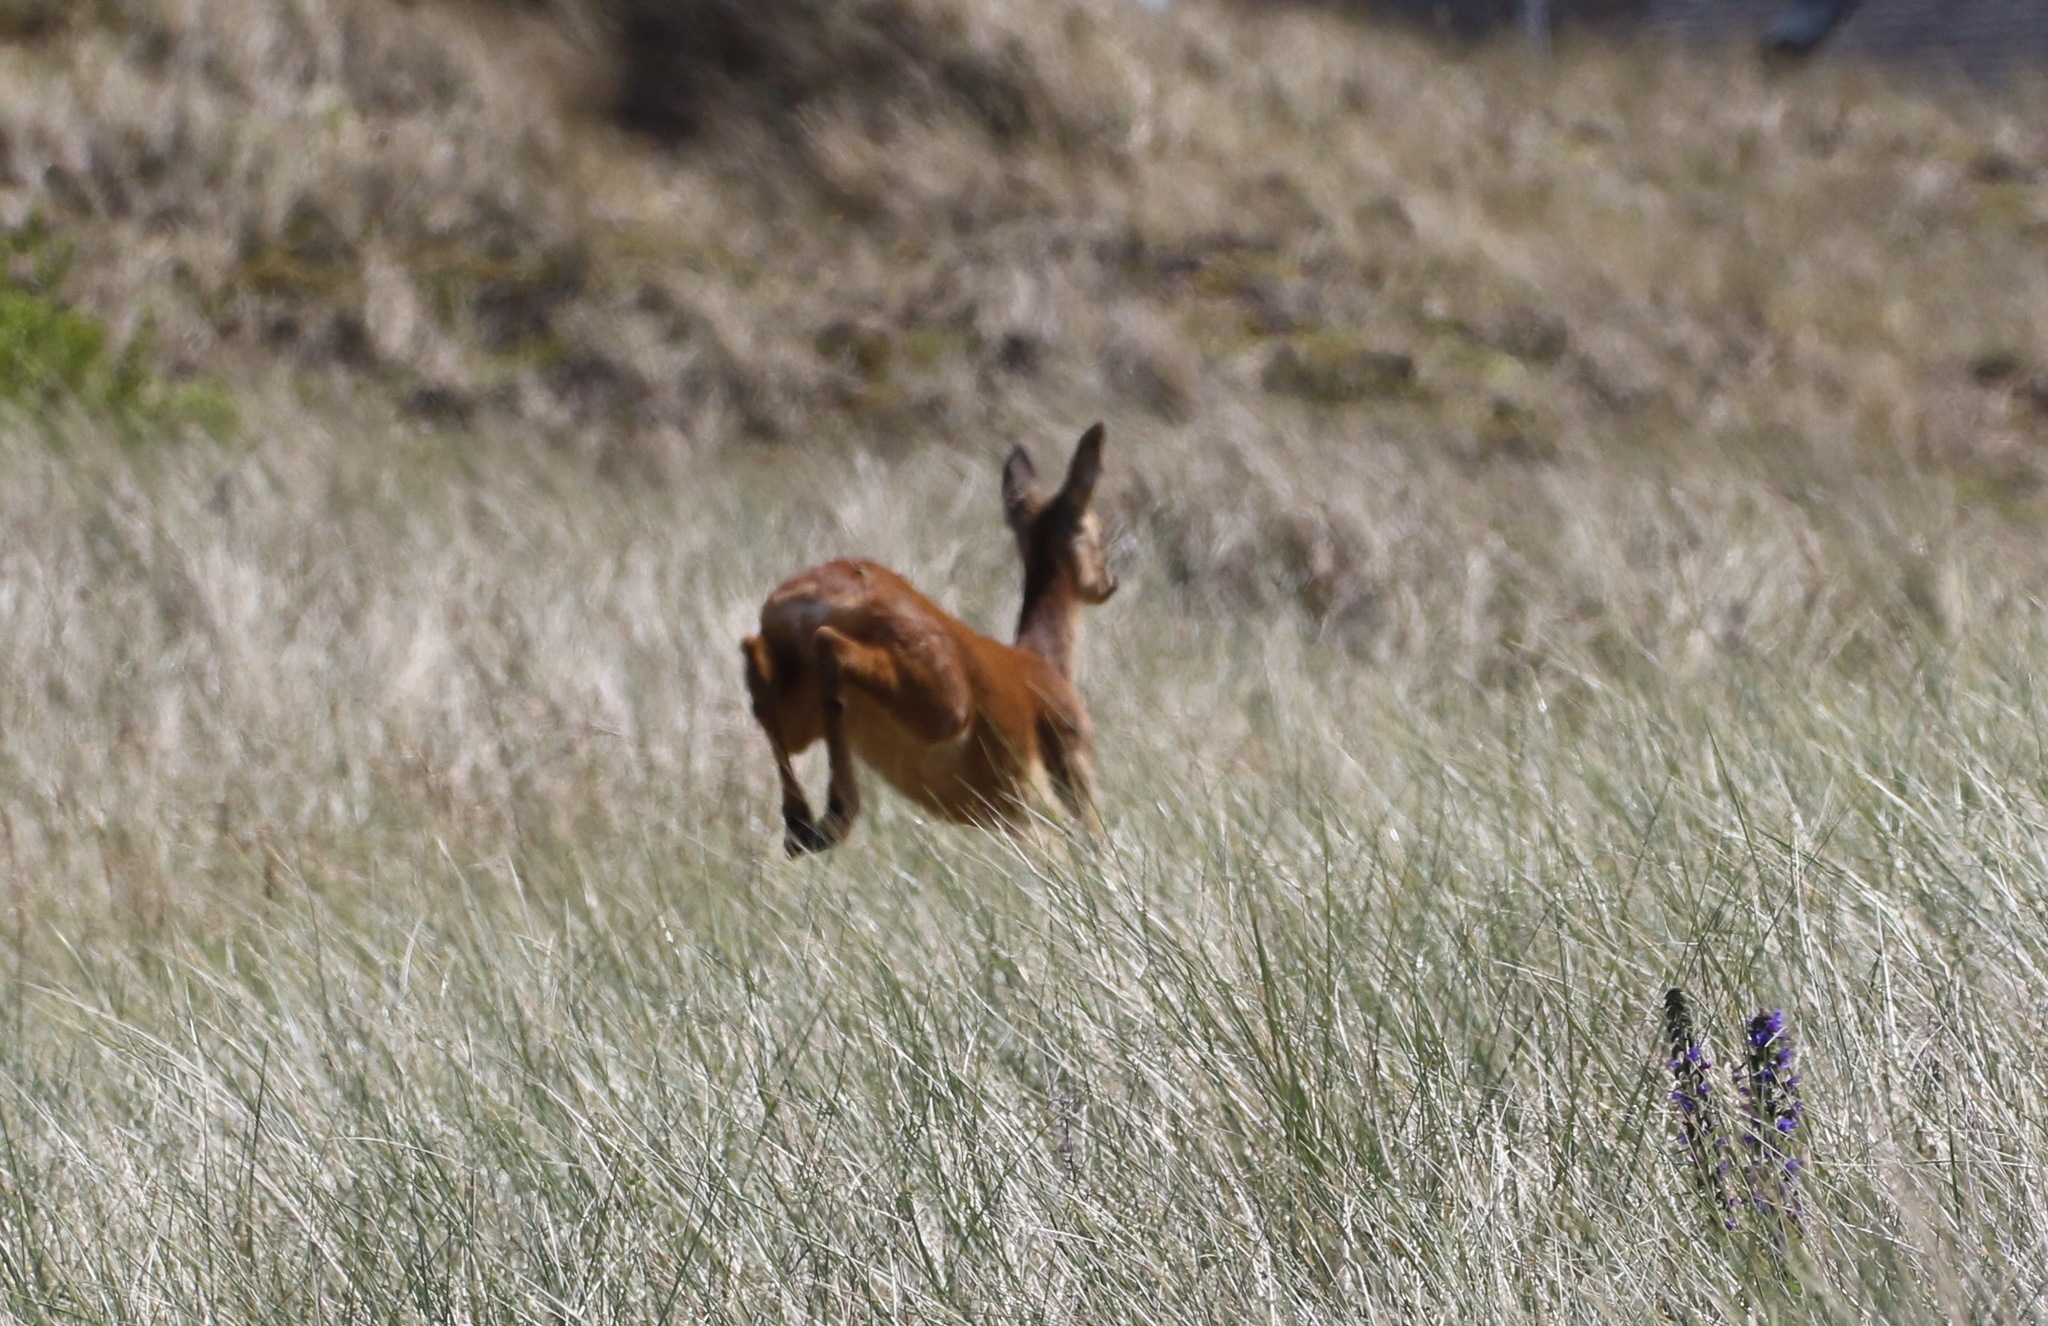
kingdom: Animalia
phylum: Chordata
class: Mammalia
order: Artiodactyla
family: Cervidae
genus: Capreolus
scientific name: Capreolus capreolus
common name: Western roe deer
